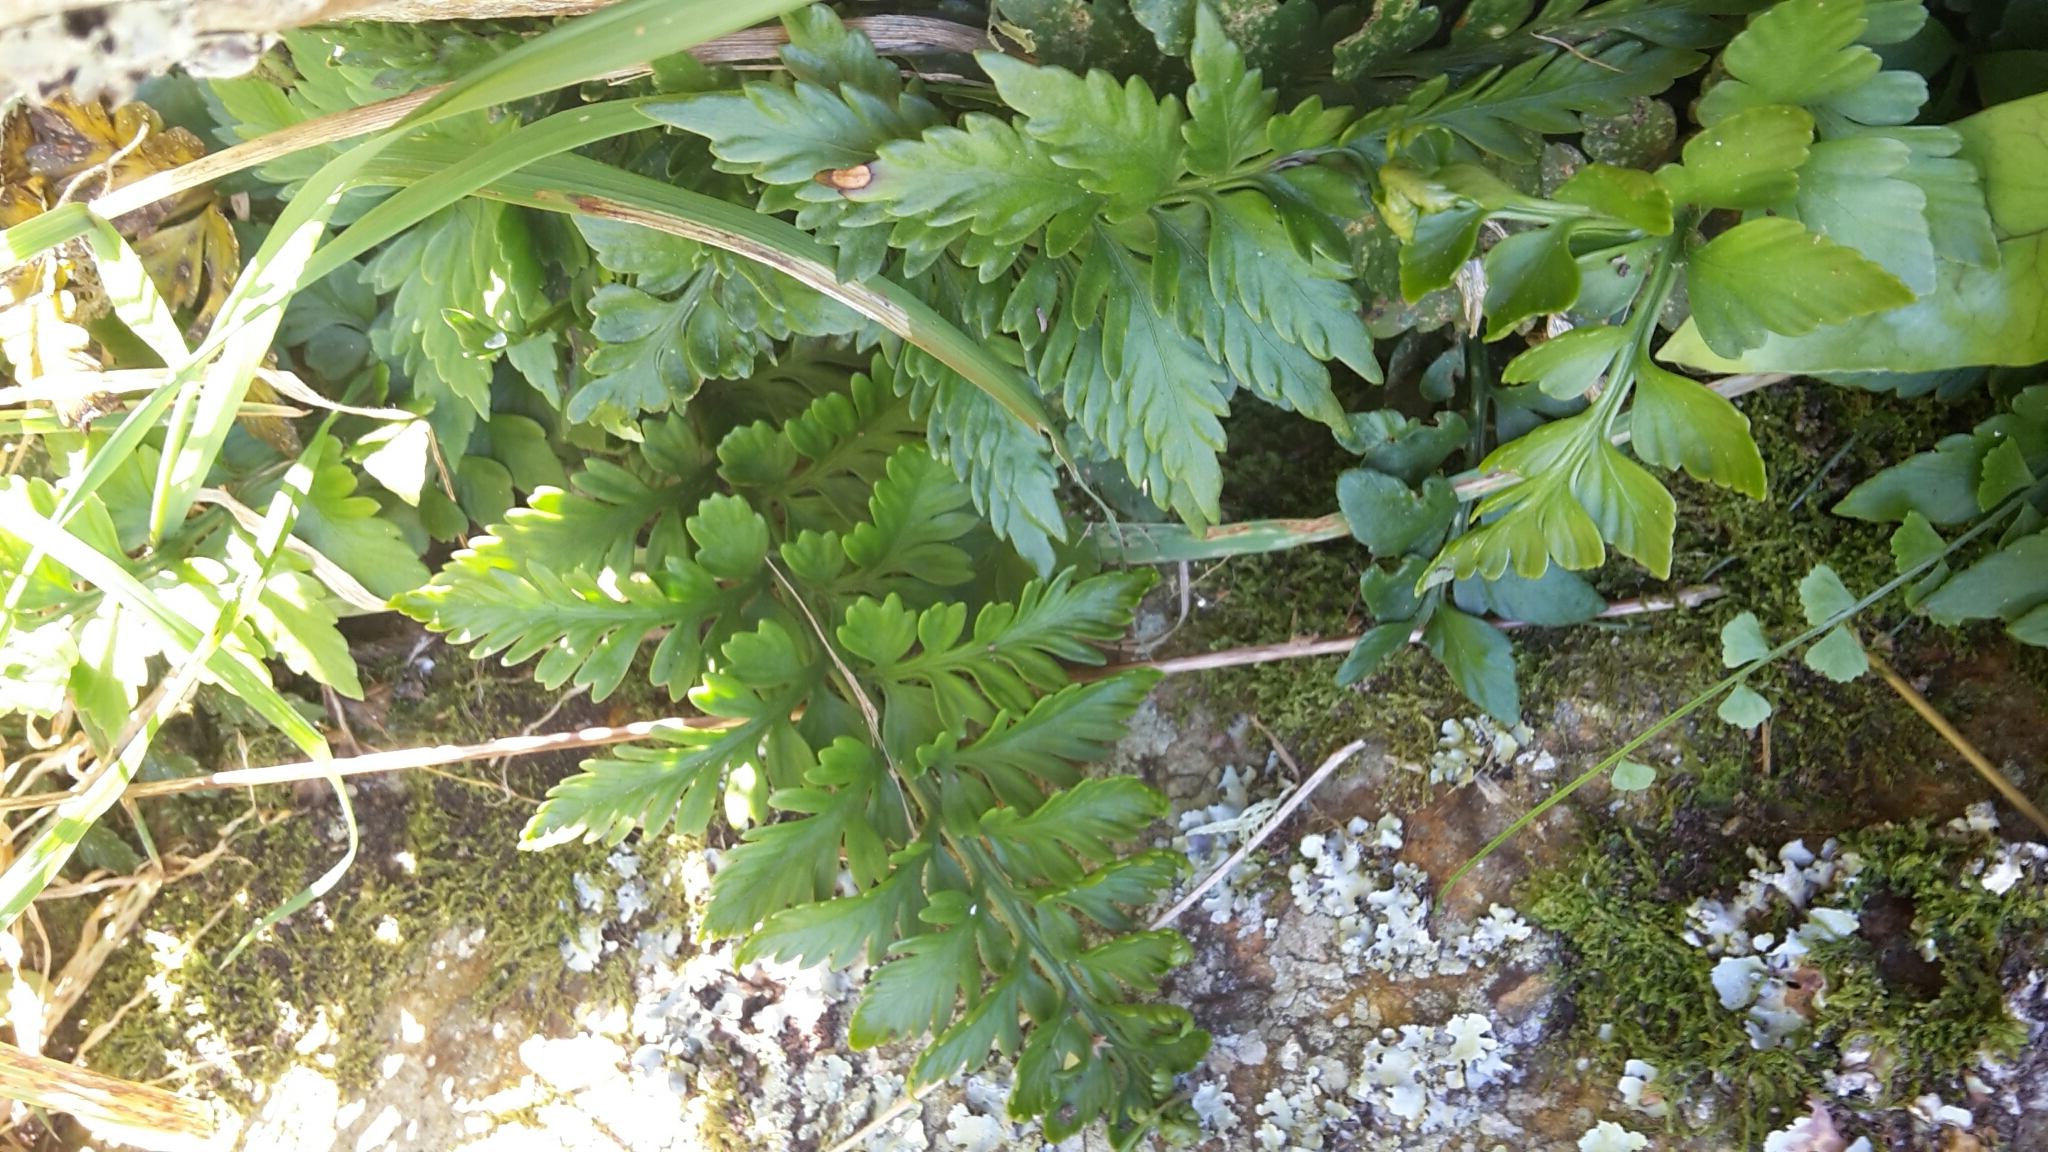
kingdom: Plantae
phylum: Tracheophyta
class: Polypodiopsida
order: Polypodiales
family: Aspleniaceae
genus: Asplenium
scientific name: Asplenium appendiculatum
